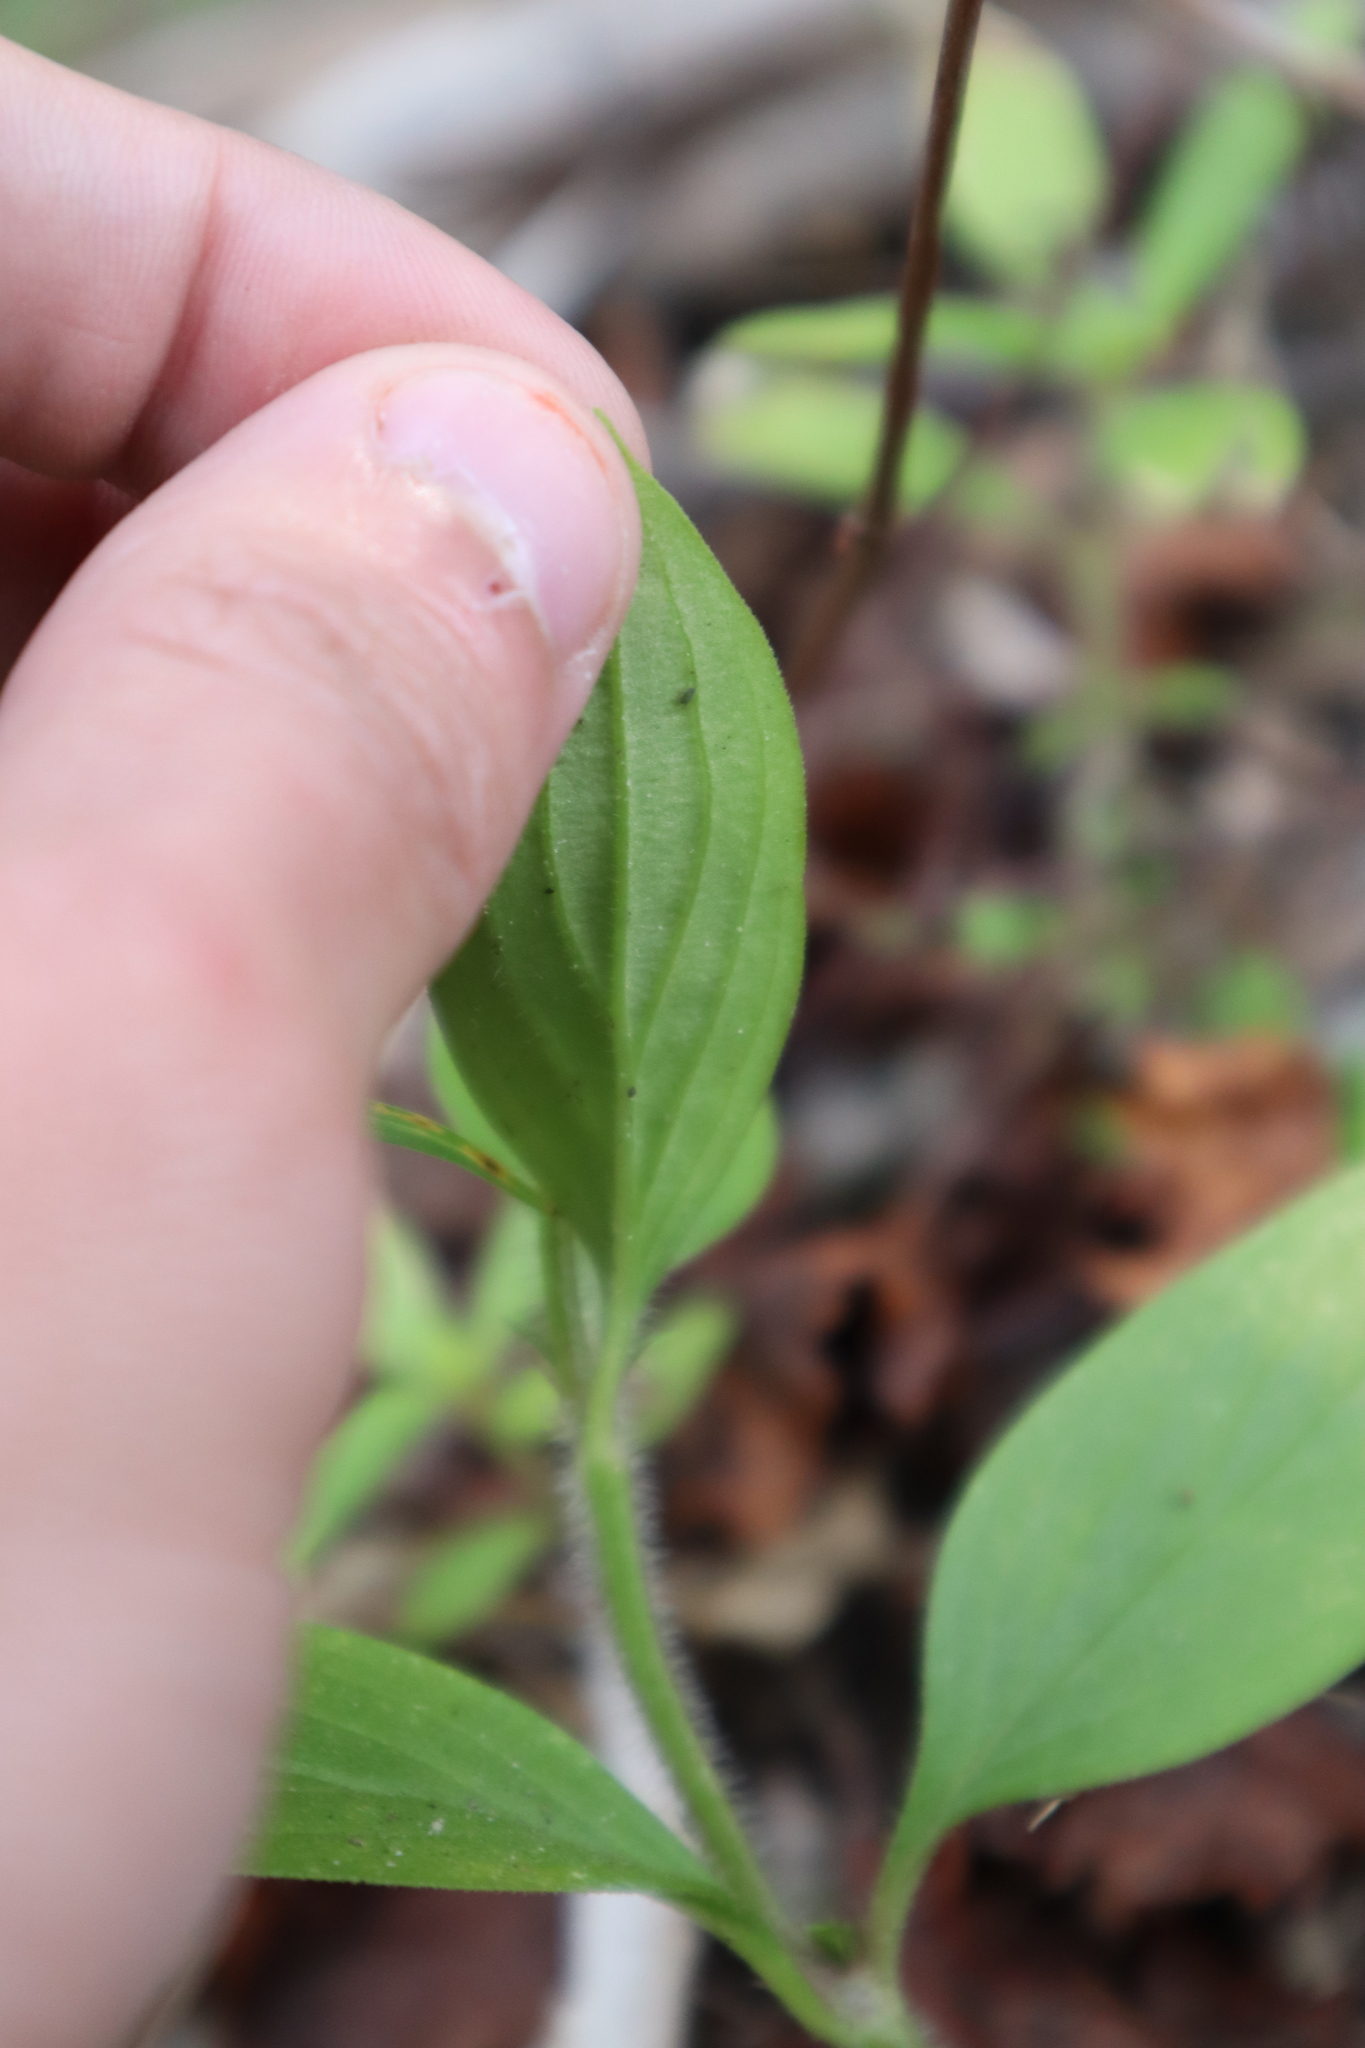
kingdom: Plantae
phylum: Tracheophyta
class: Magnoliopsida
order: Gentianales
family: Rubiaceae
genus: Richardia
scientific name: Richardia grandiflora
